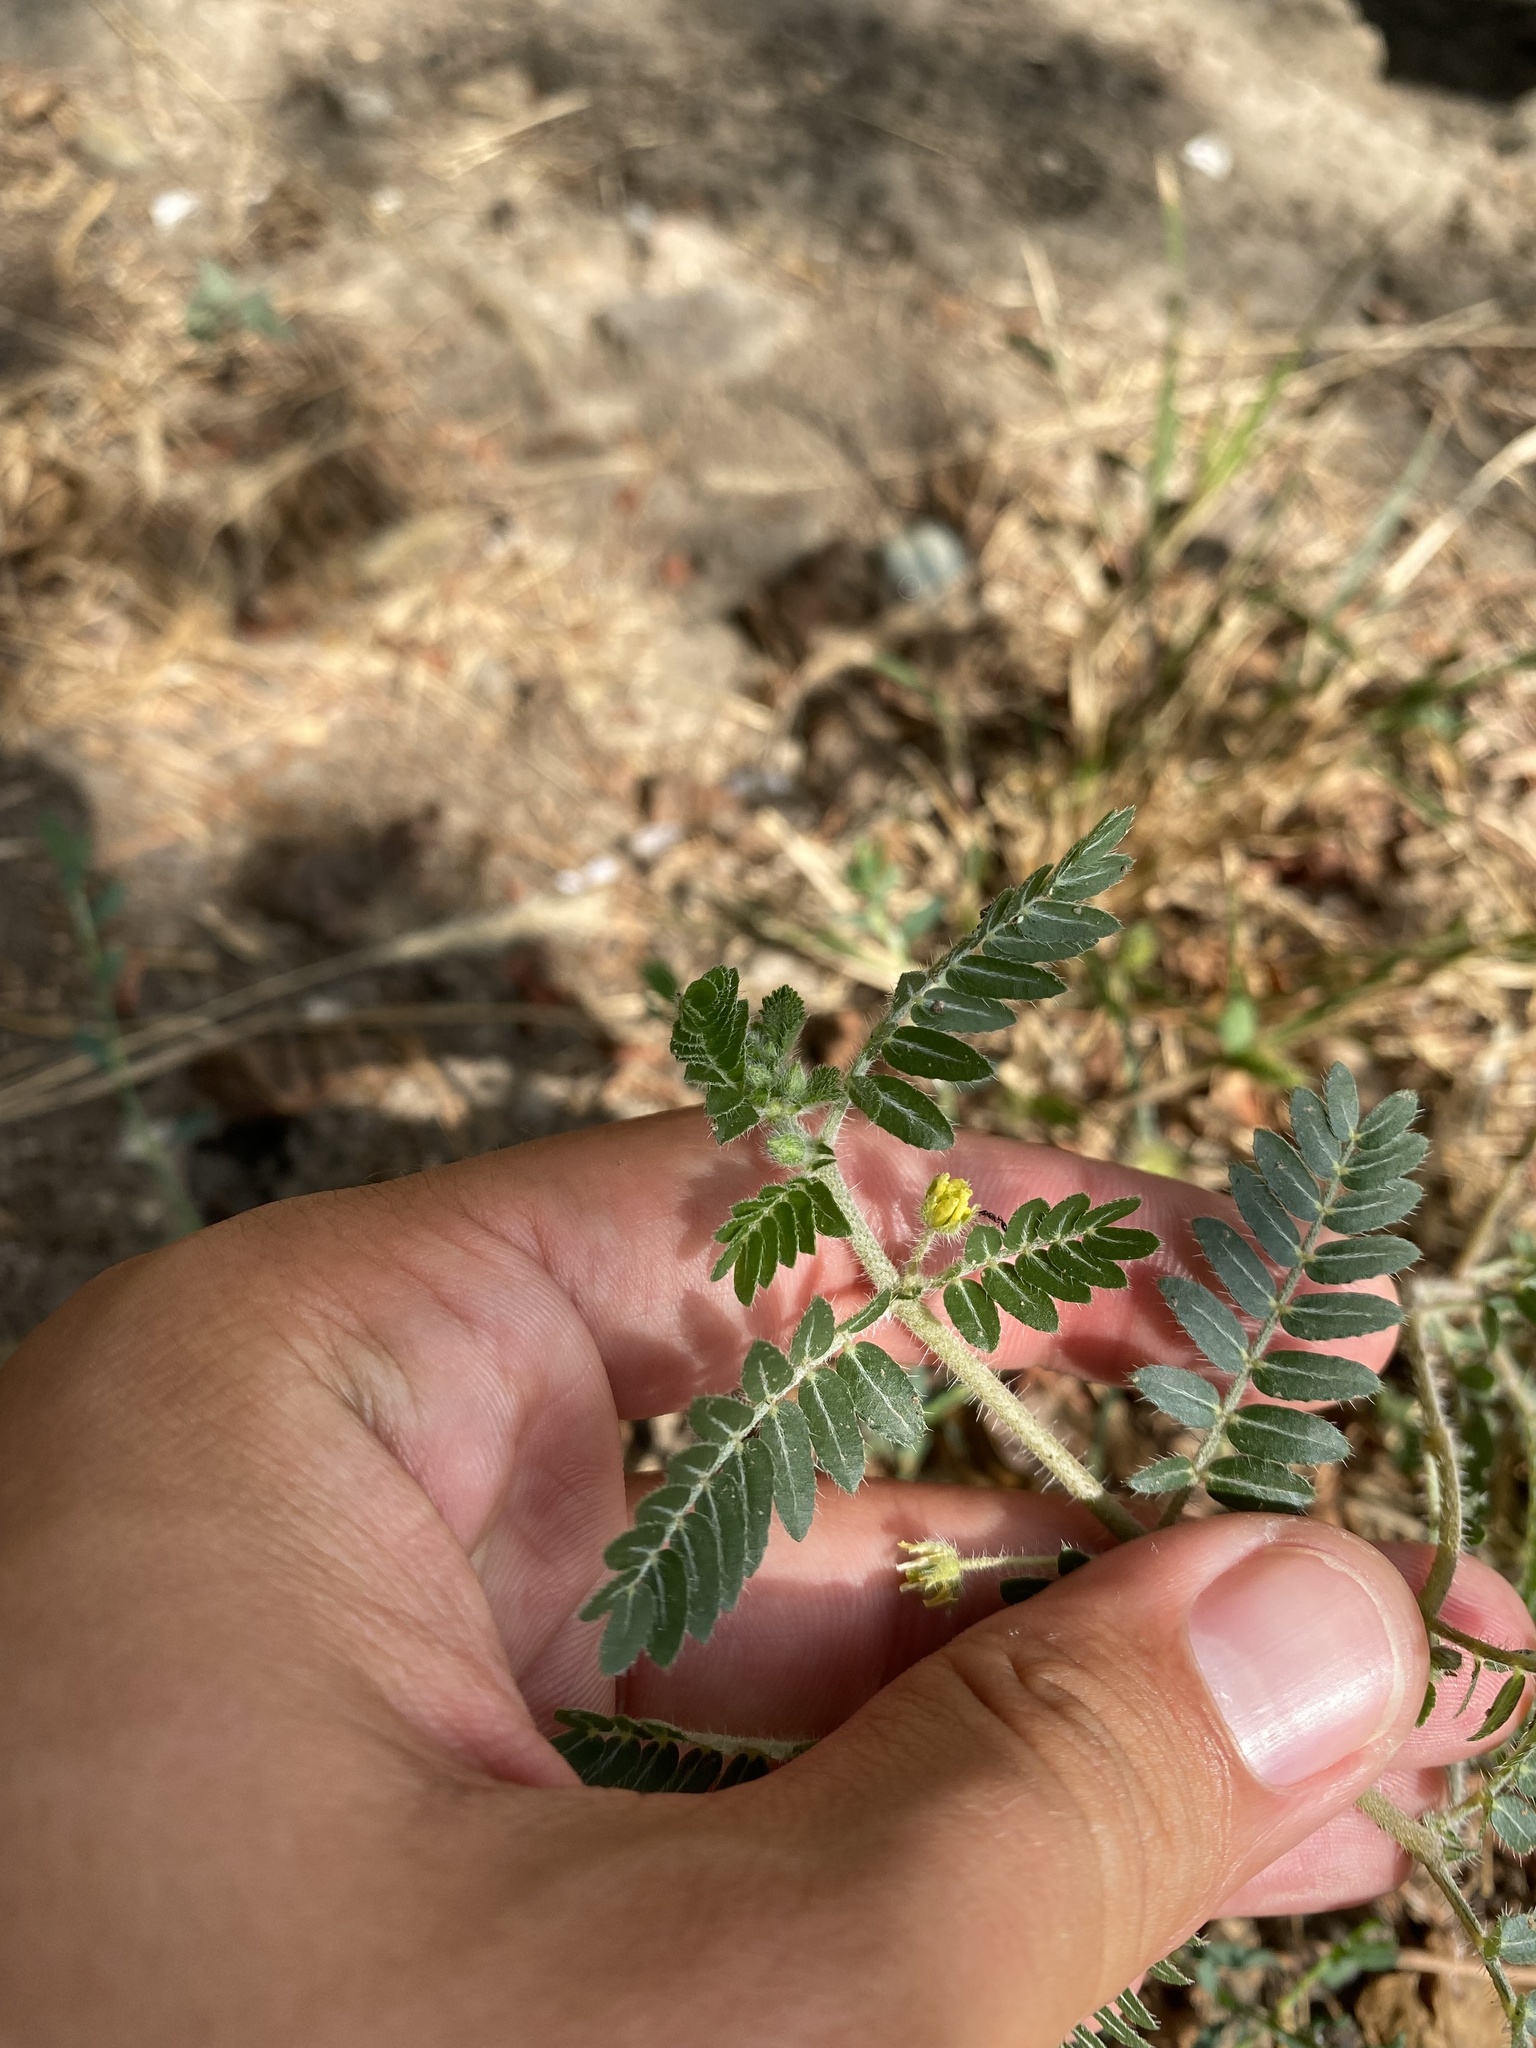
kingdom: Plantae
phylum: Tracheophyta
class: Magnoliopsida
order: Zygophyllales
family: Zygophyllaceae
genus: Tribulus
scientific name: Tribulus terrestris
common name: Puncturevine
